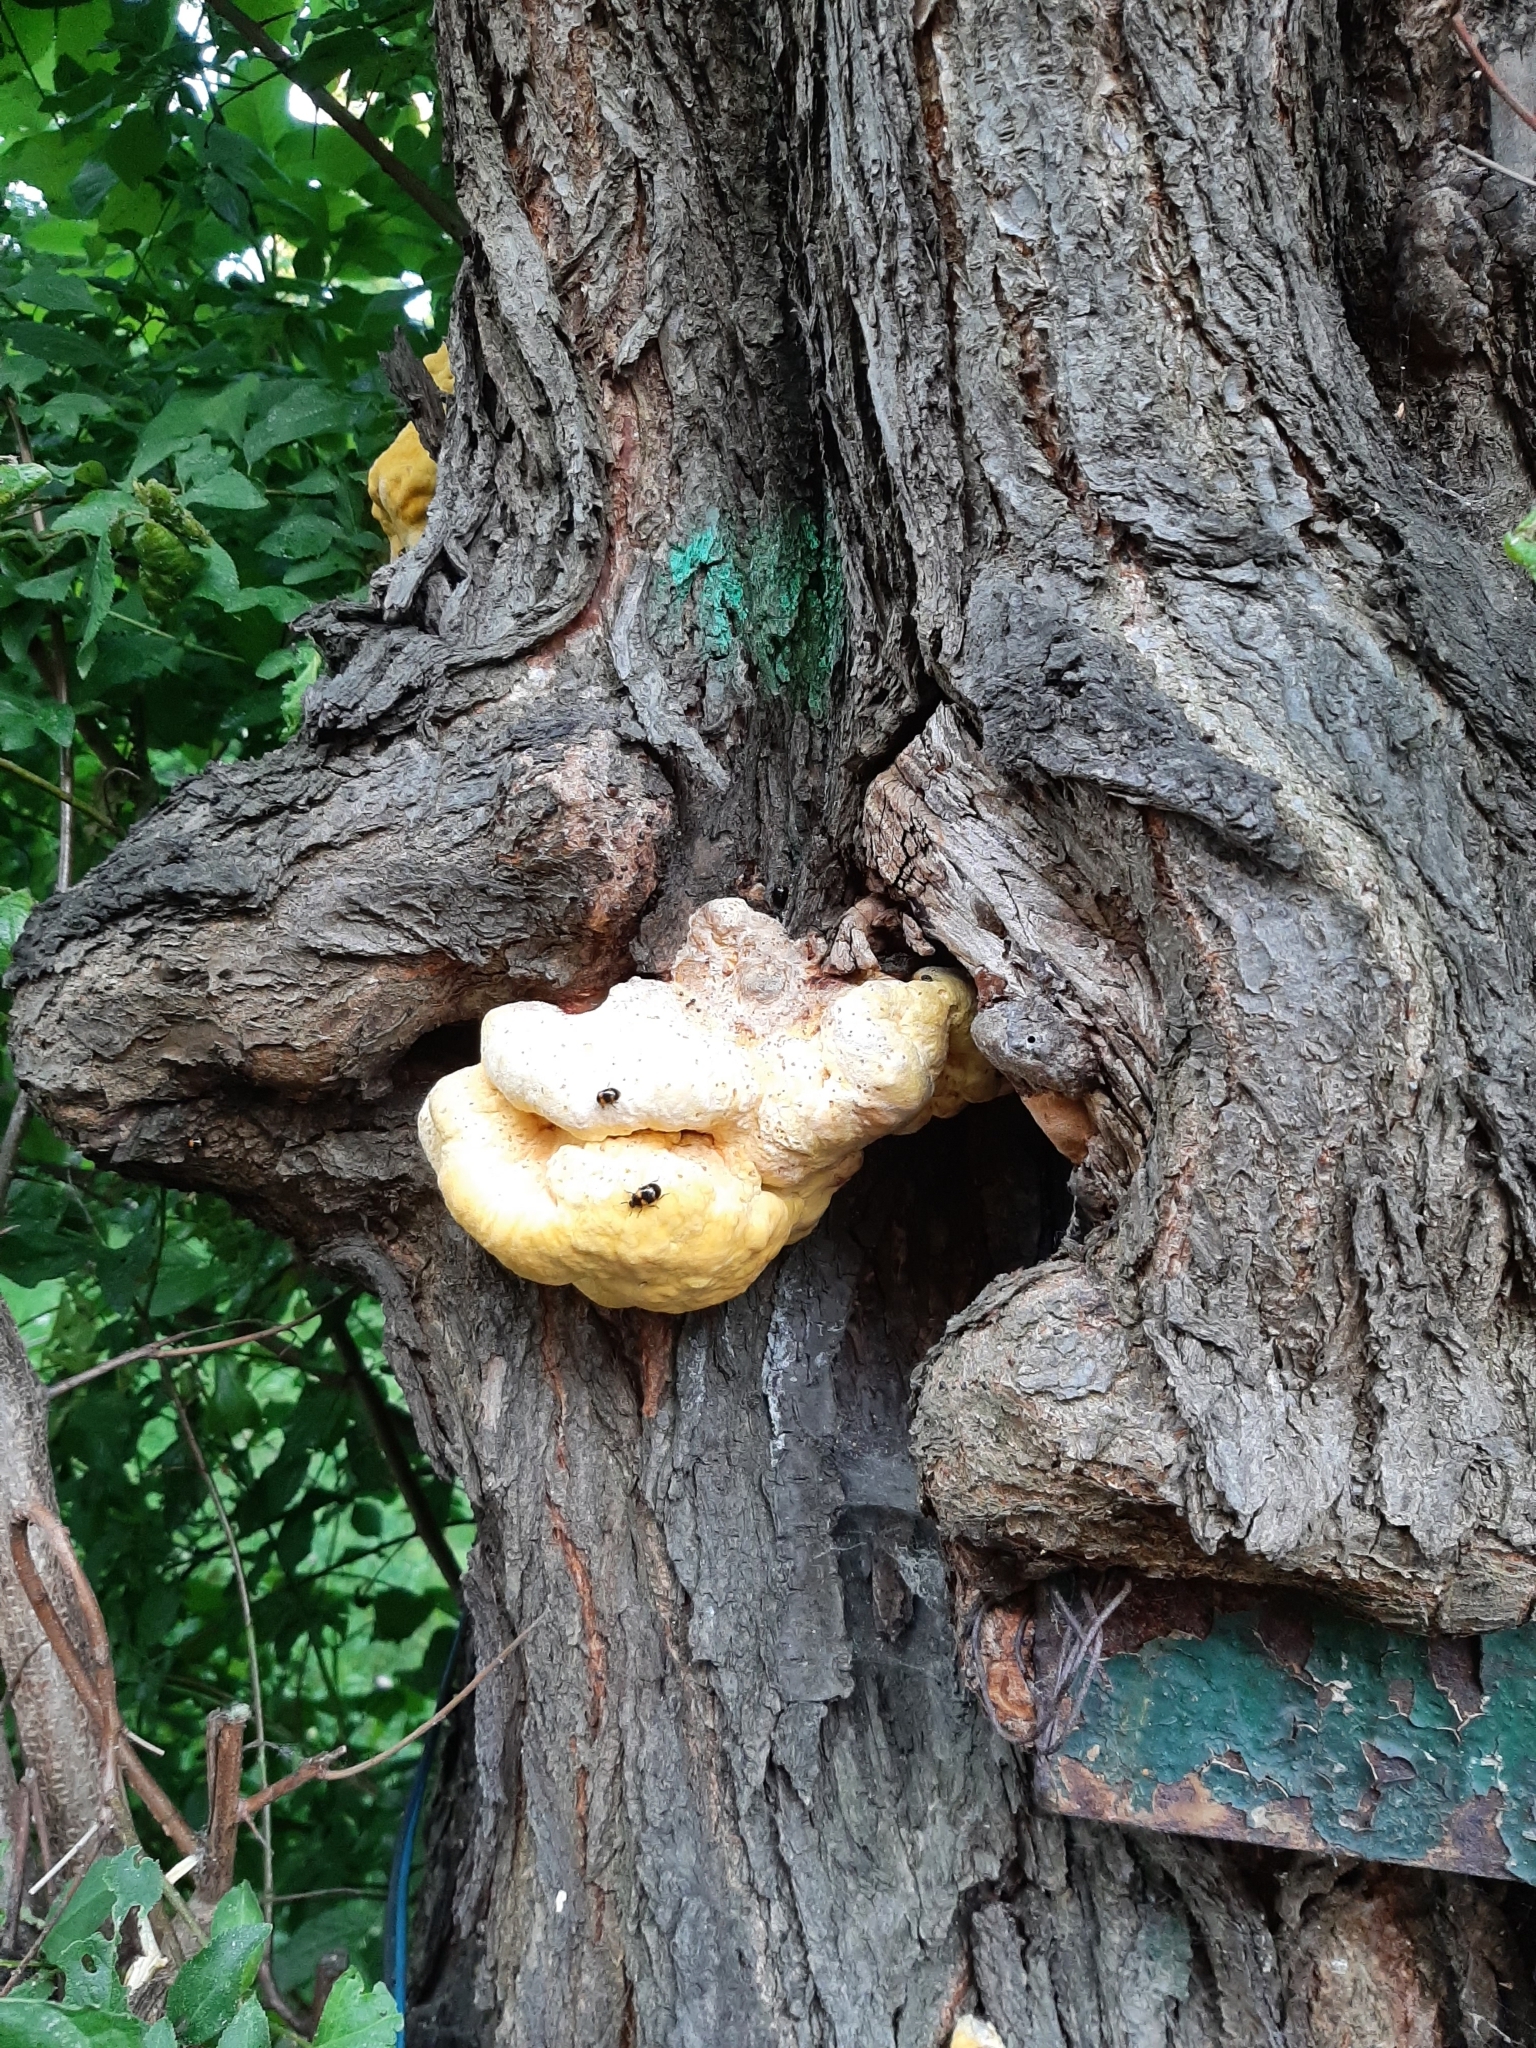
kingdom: Fungi
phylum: Basidiomycota
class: Agaricomycetes
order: Polyporales
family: Laetiporaceae
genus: Laetiporus
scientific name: Laetiporus sulphureus
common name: Chicken of the woods
